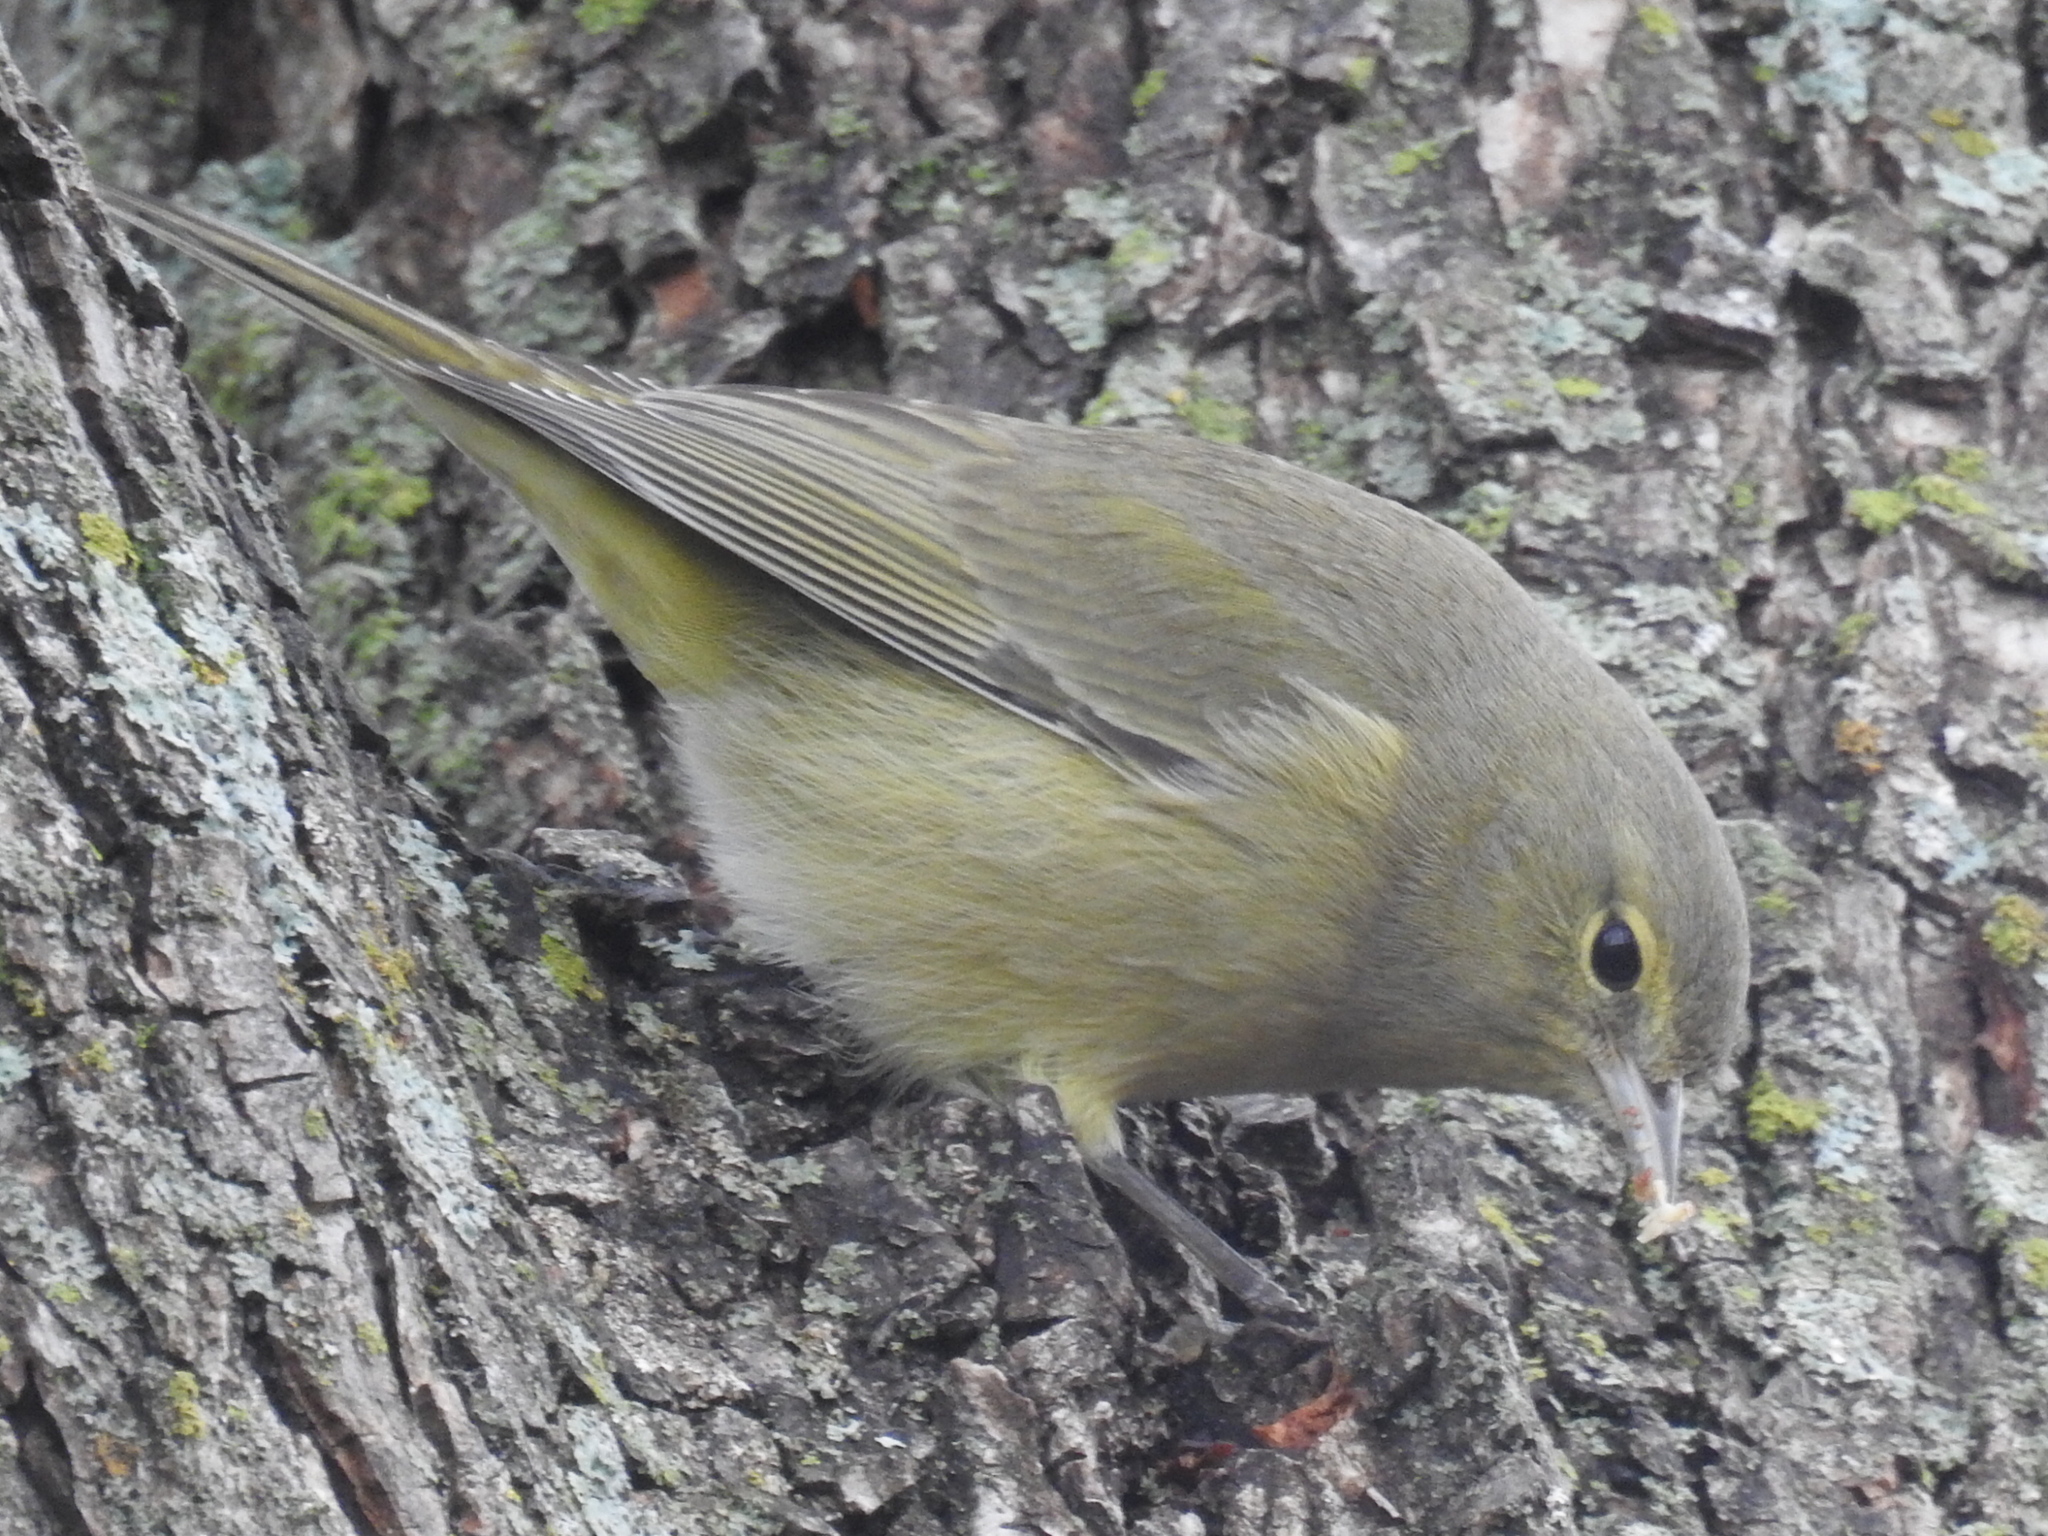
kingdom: Animalia
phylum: Chordata
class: Aves
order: Passeriformes
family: Parulidae
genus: Leiothlypis
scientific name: Leiothlypis celata
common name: Orange-crowned warbler
